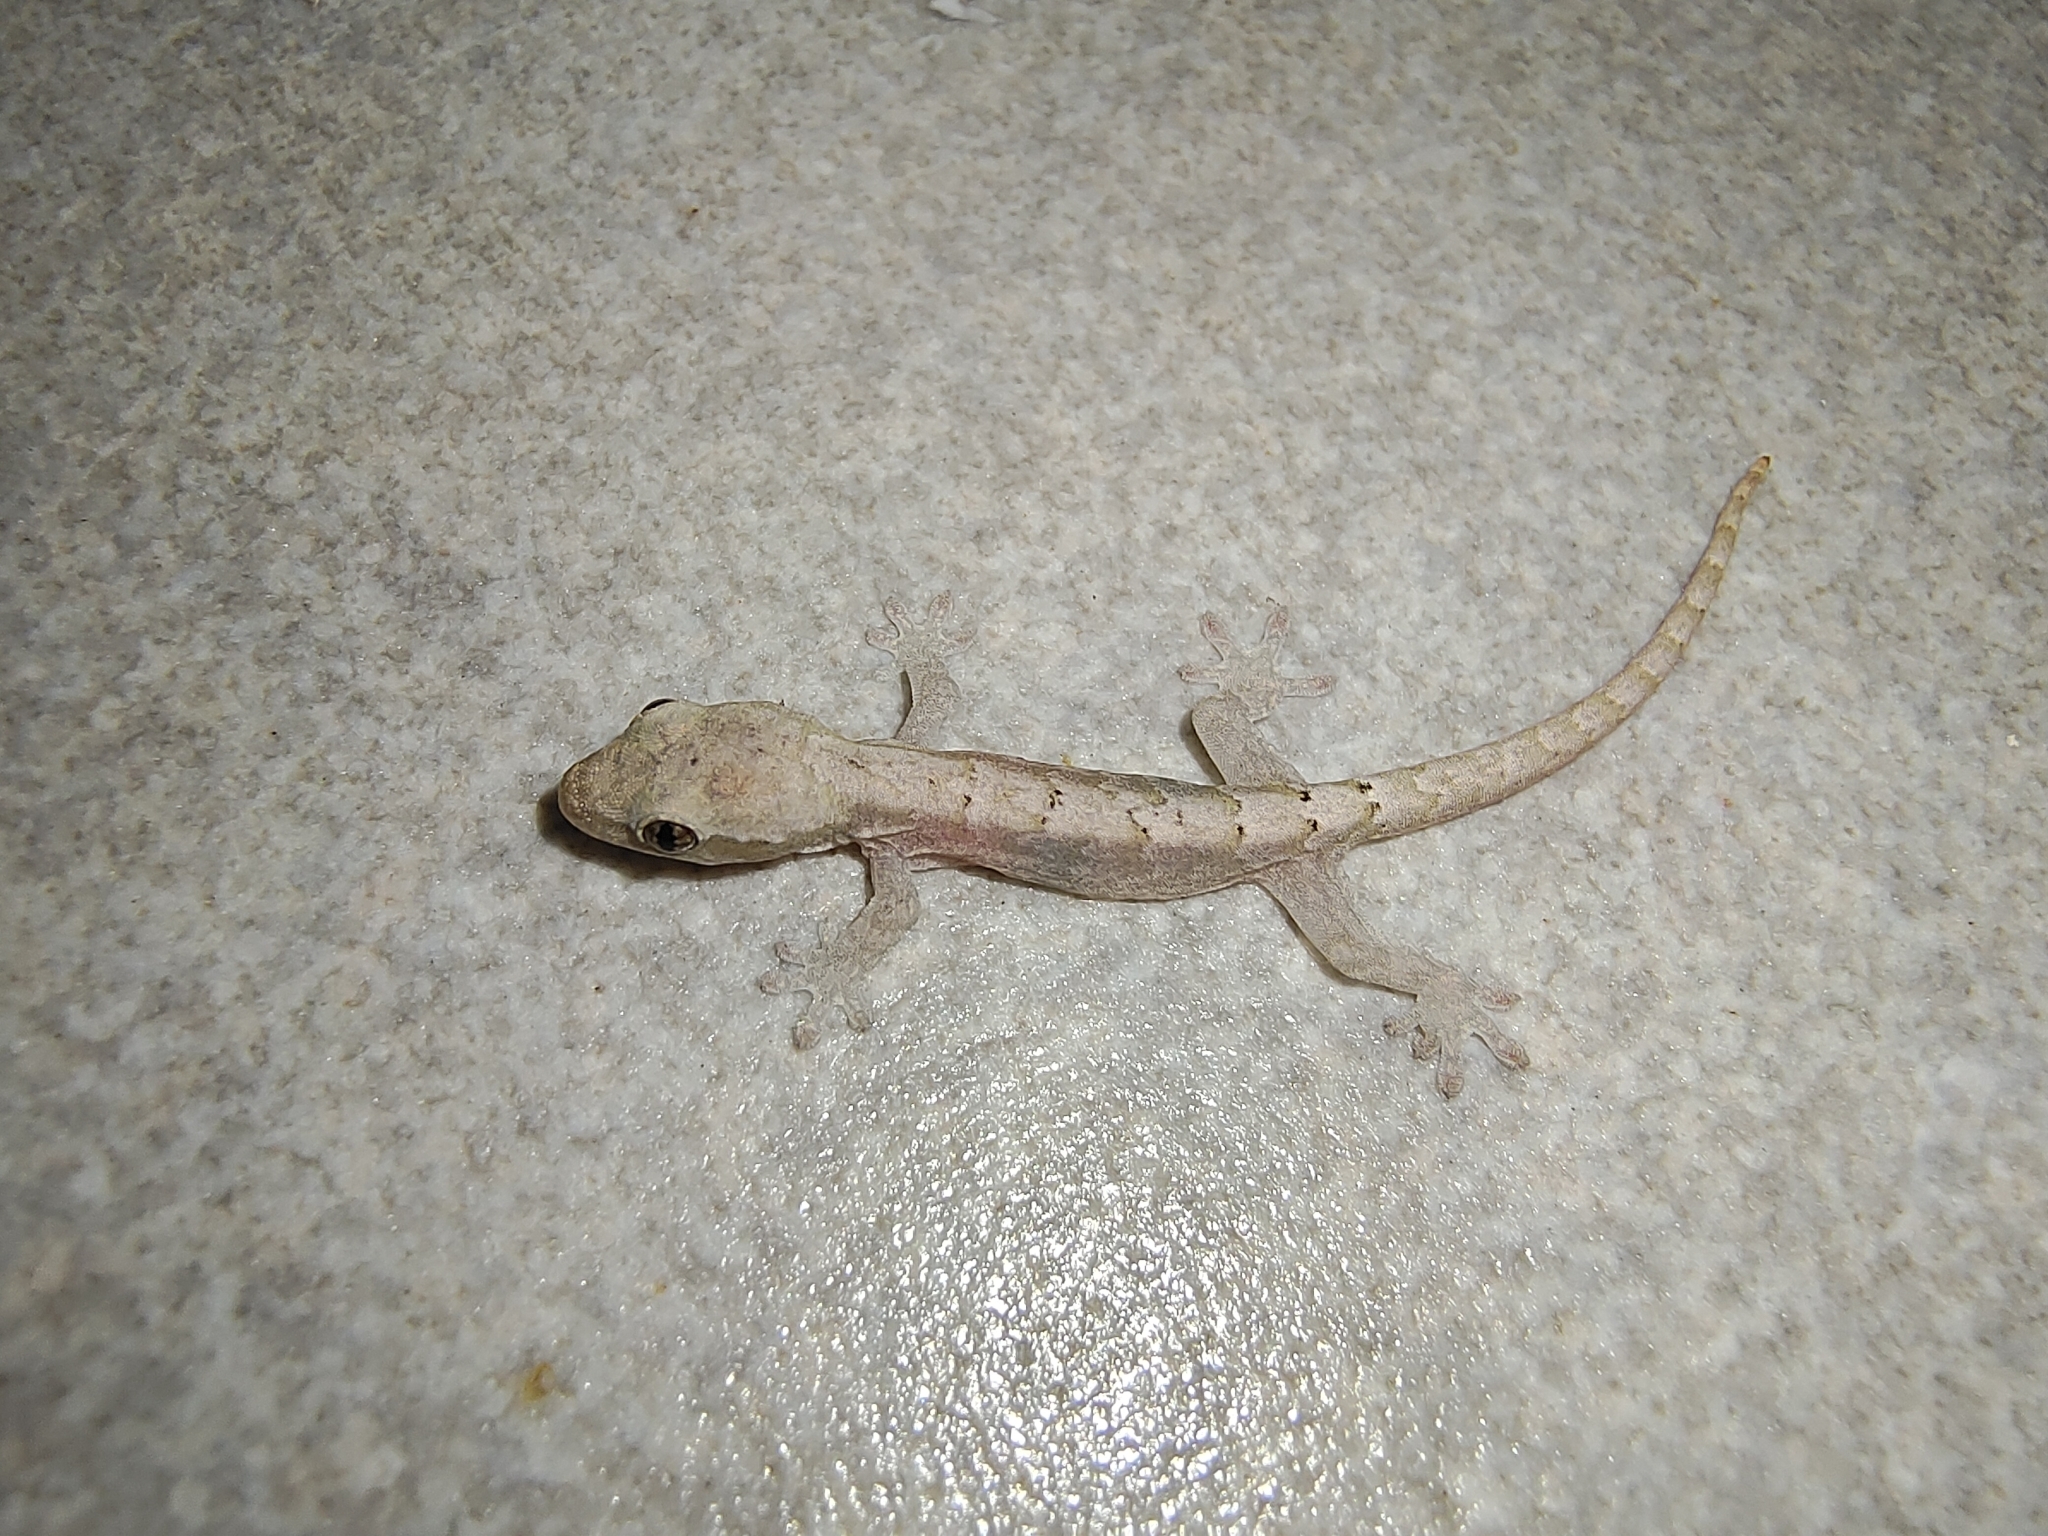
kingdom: Animalia
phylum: Chordata
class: Squamata
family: Gekkonidae
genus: Lepidodactylus
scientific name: Lepidodactylus lugubris
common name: Mourning gecko
